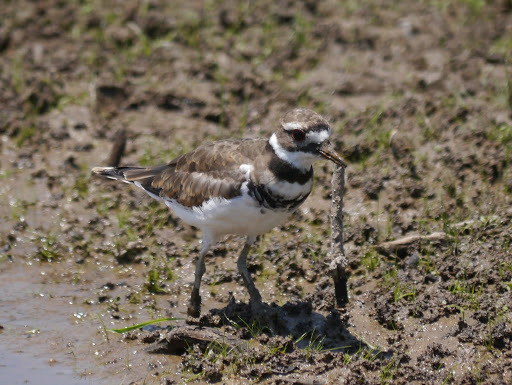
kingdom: Animalia
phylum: Chordata
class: Aves
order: Charadriiformes
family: Charadriidae
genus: Charadrius
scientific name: Charadrius vociferus
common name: Killdeer
